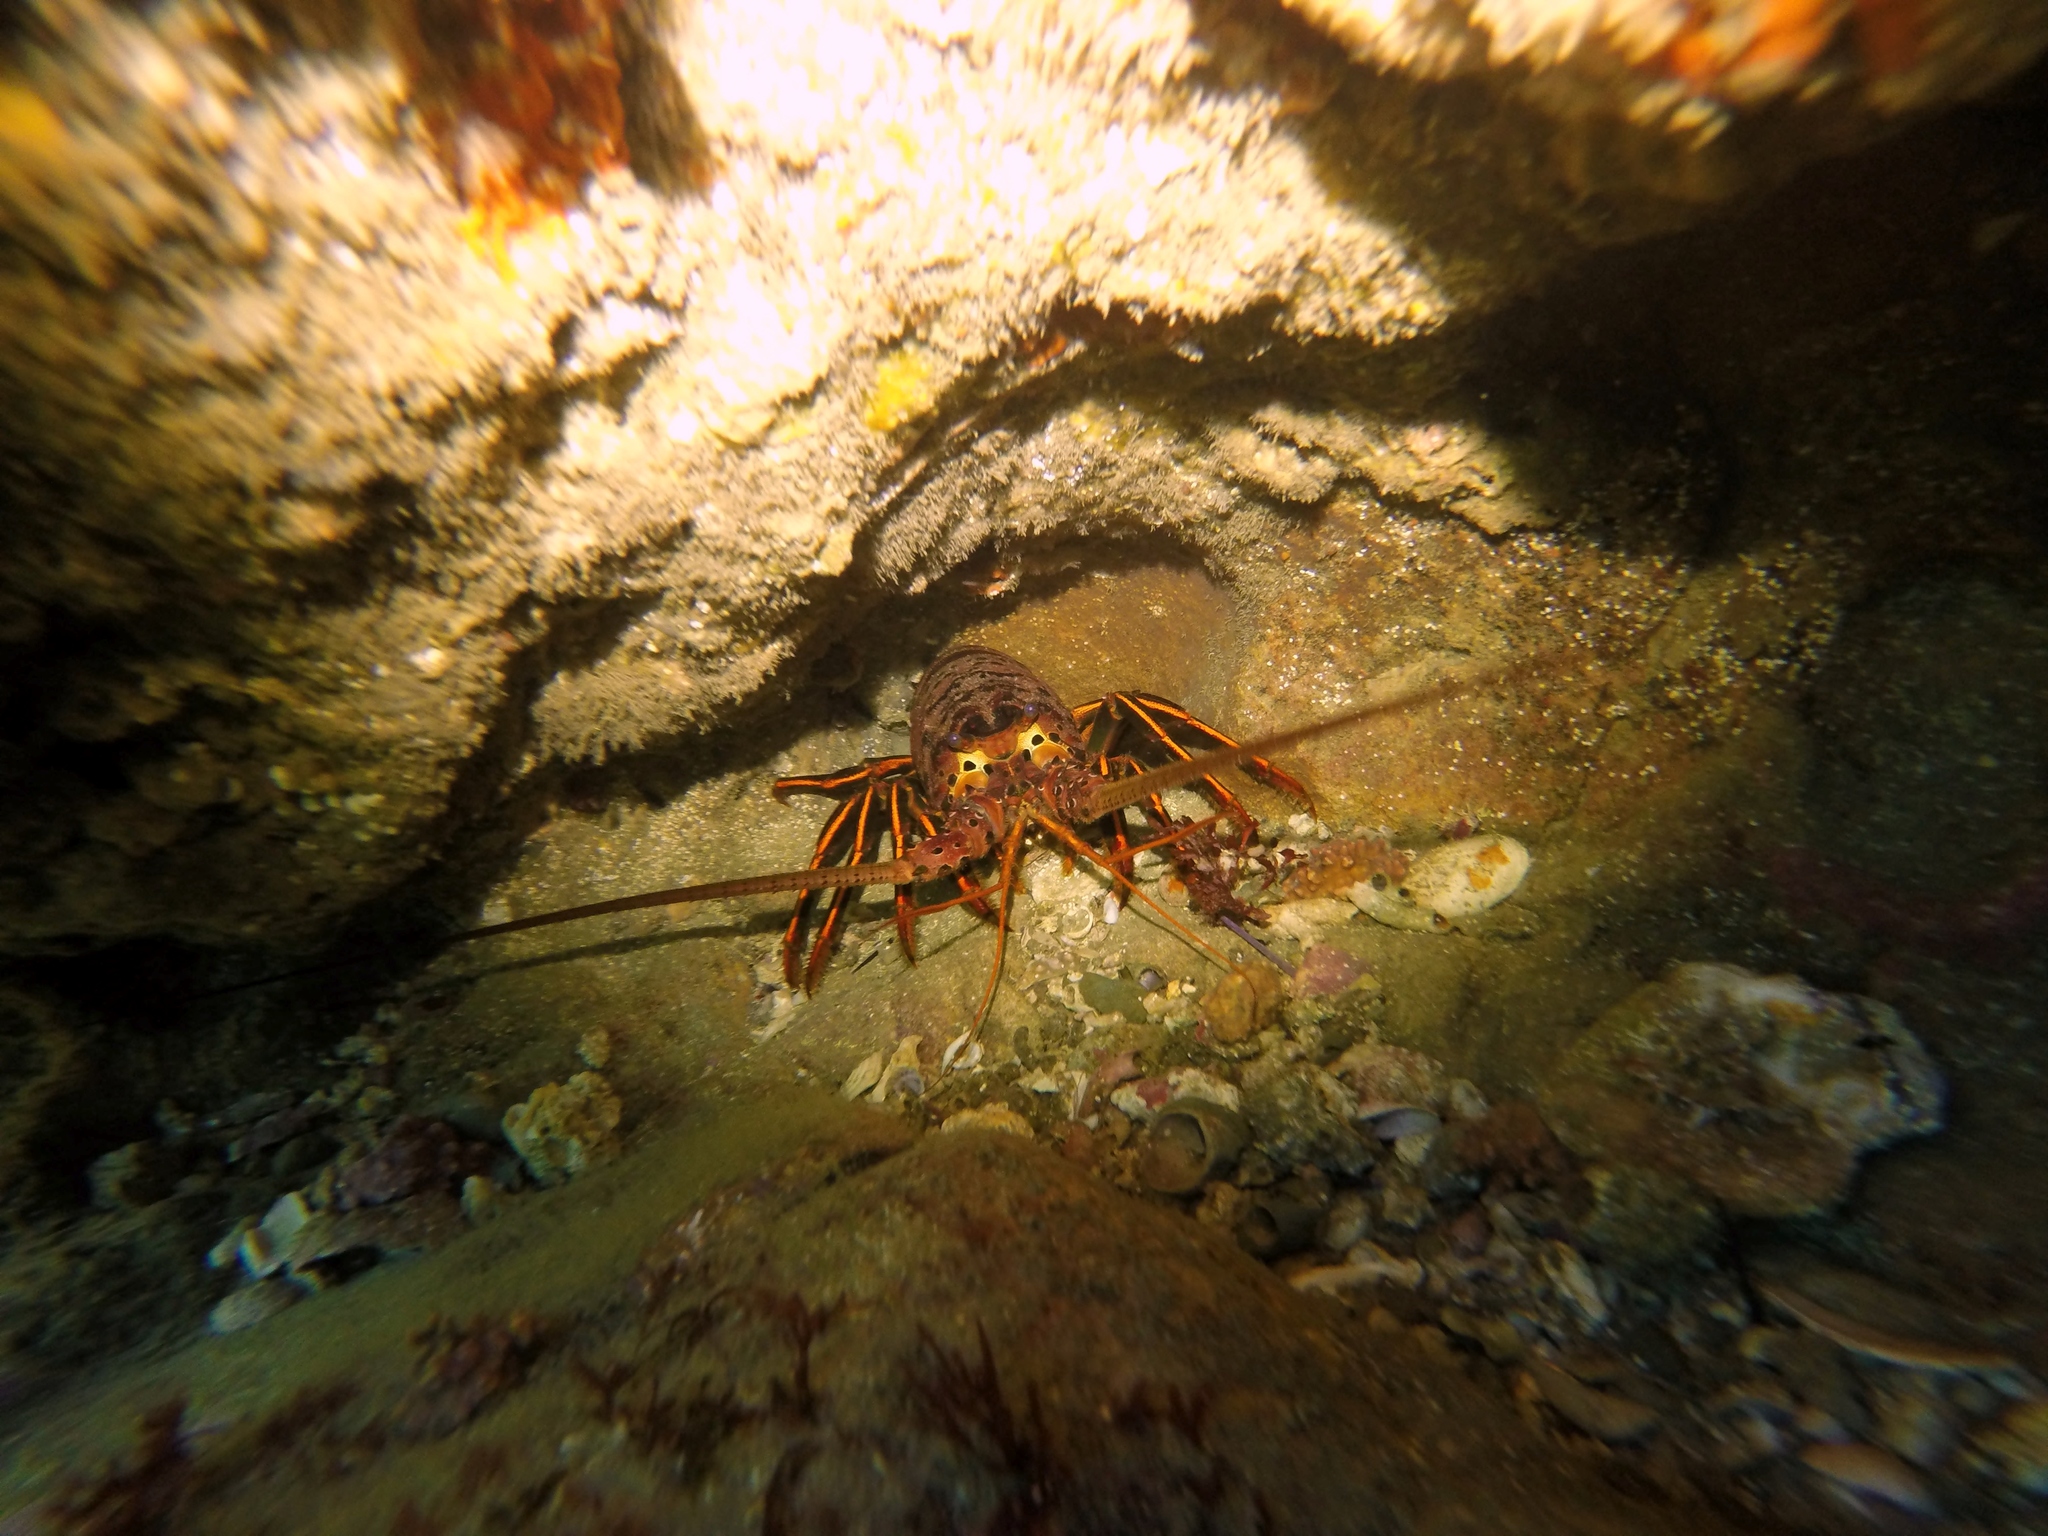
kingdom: Animalia
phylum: Arthropoda
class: Malacostraca
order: Decapoda
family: Palinuridae
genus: Panulirus
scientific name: Panulirus interruptus
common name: California spiny lobster
